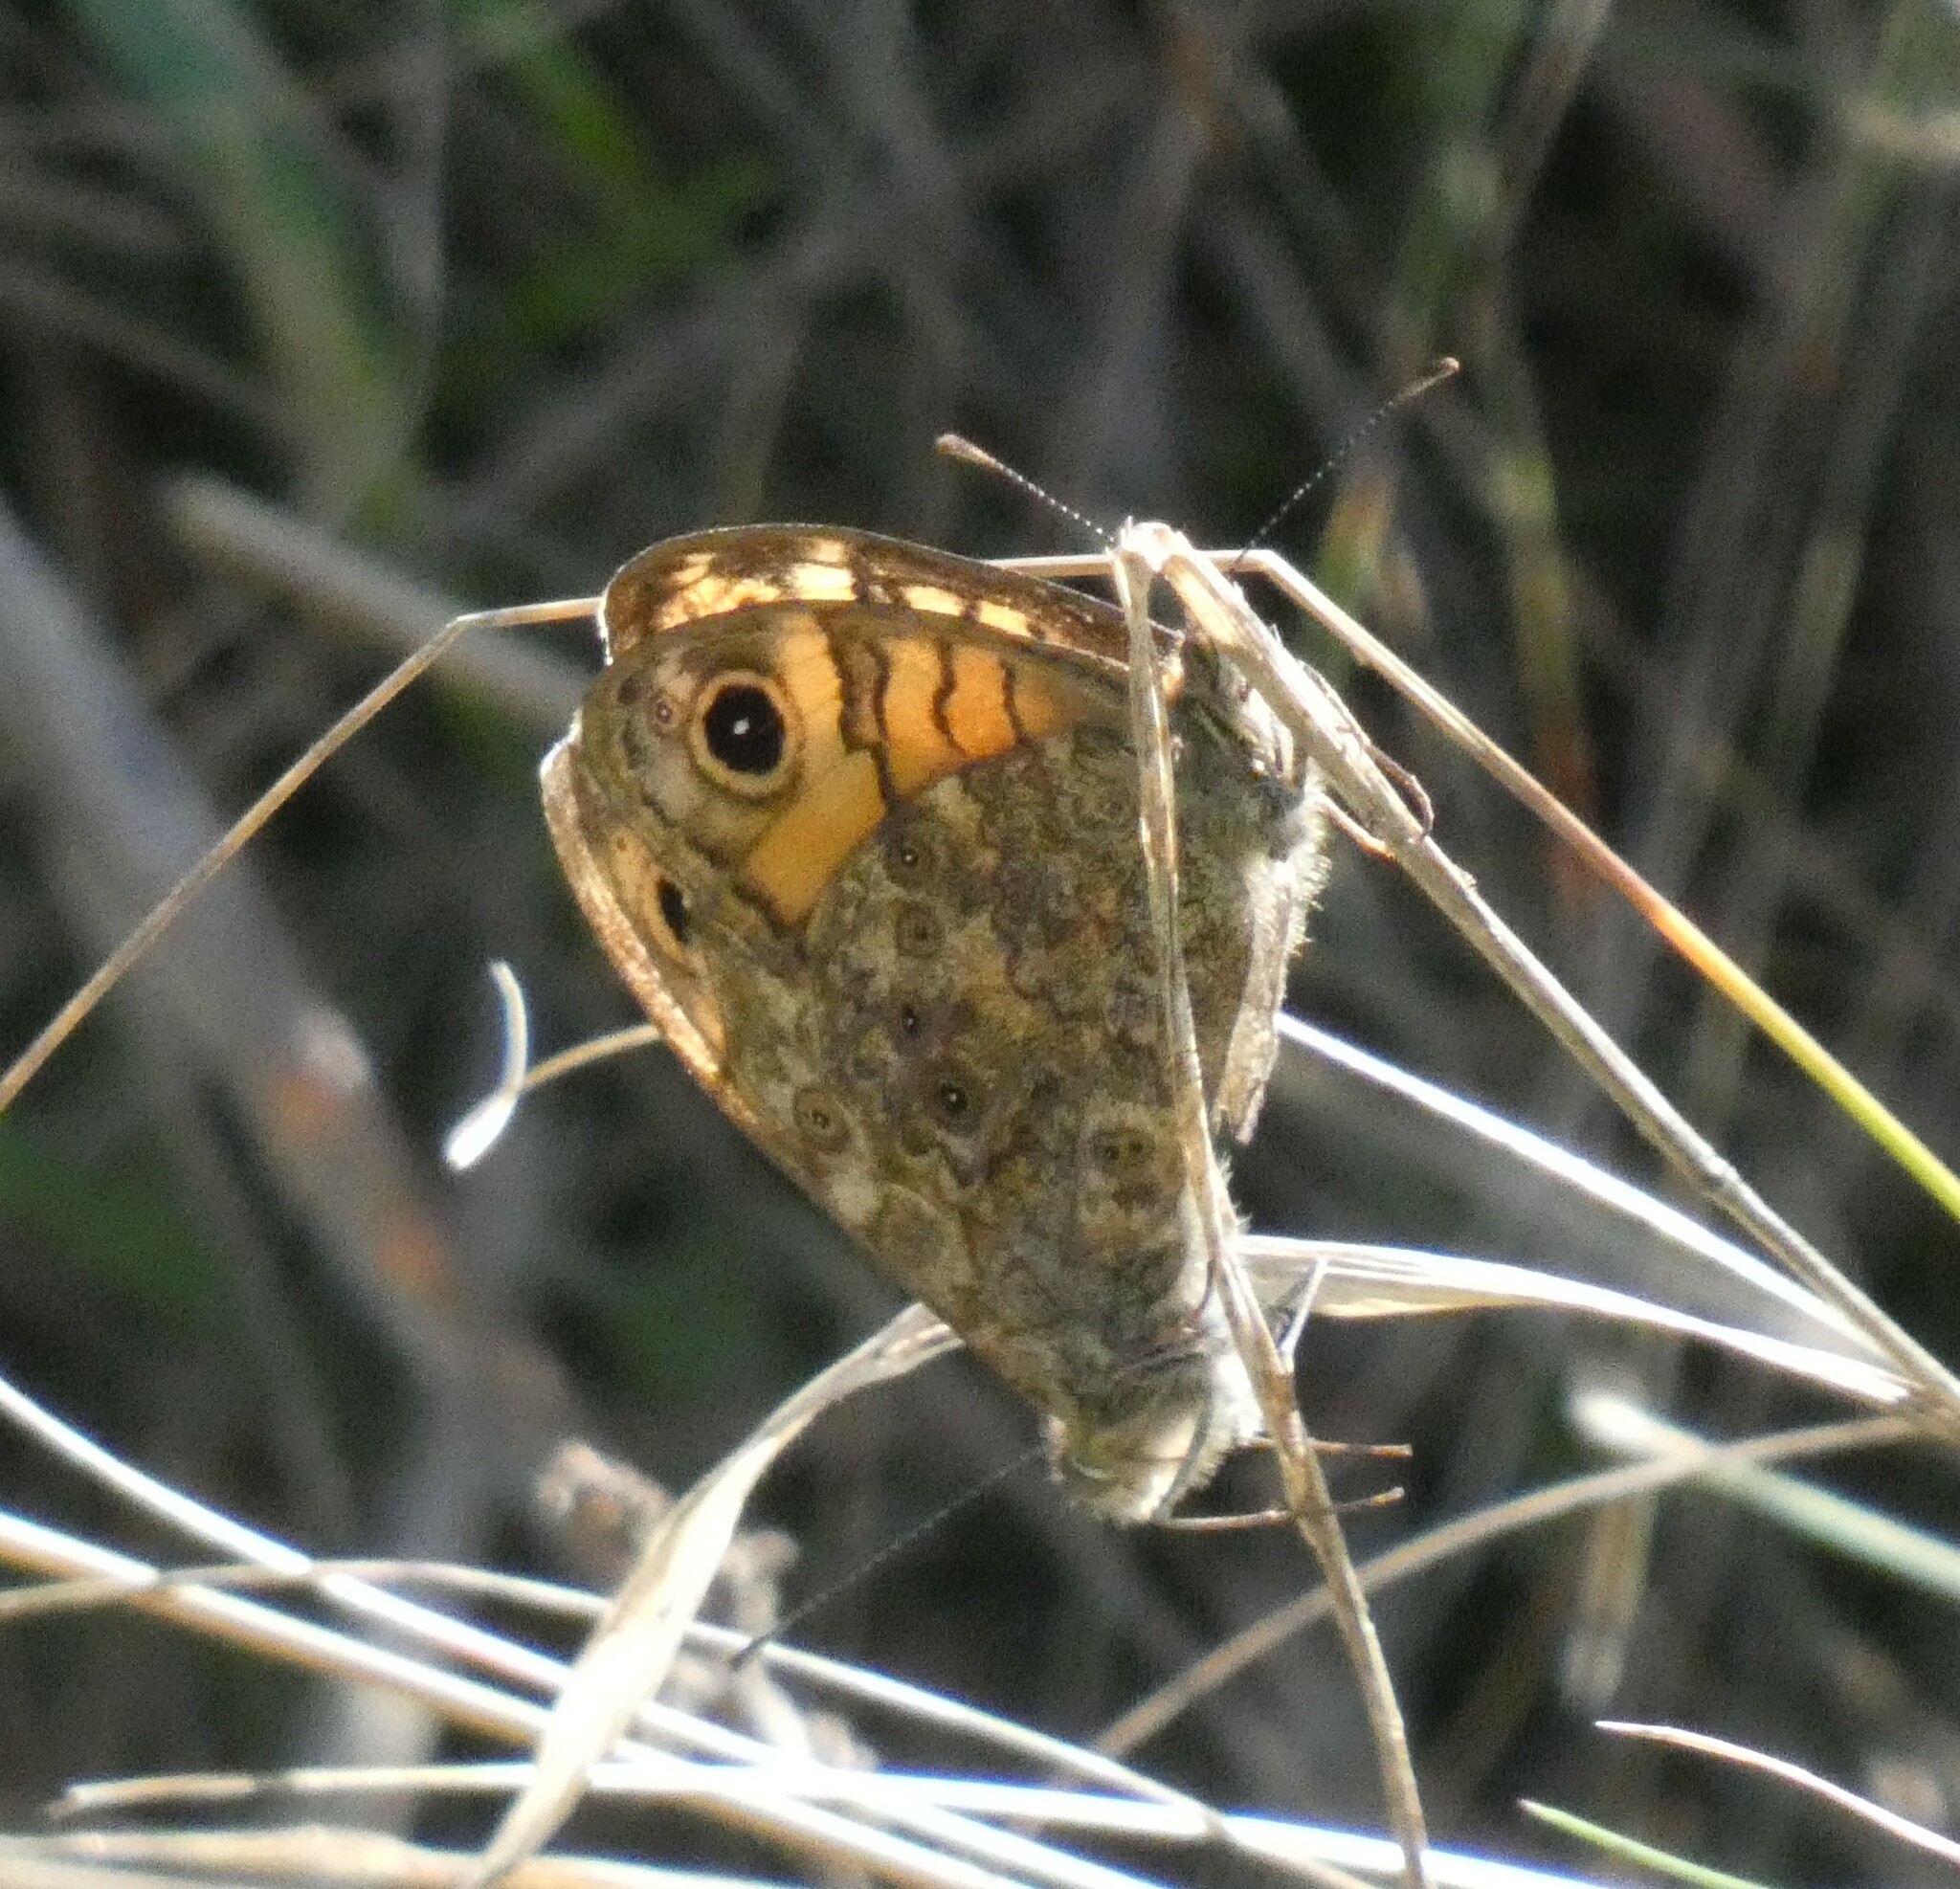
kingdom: Animalia
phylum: Arthropoda
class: Insecta
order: Lepidoptera
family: Nymphalidae
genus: Pararge
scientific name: Pararge Lasiommata megera
